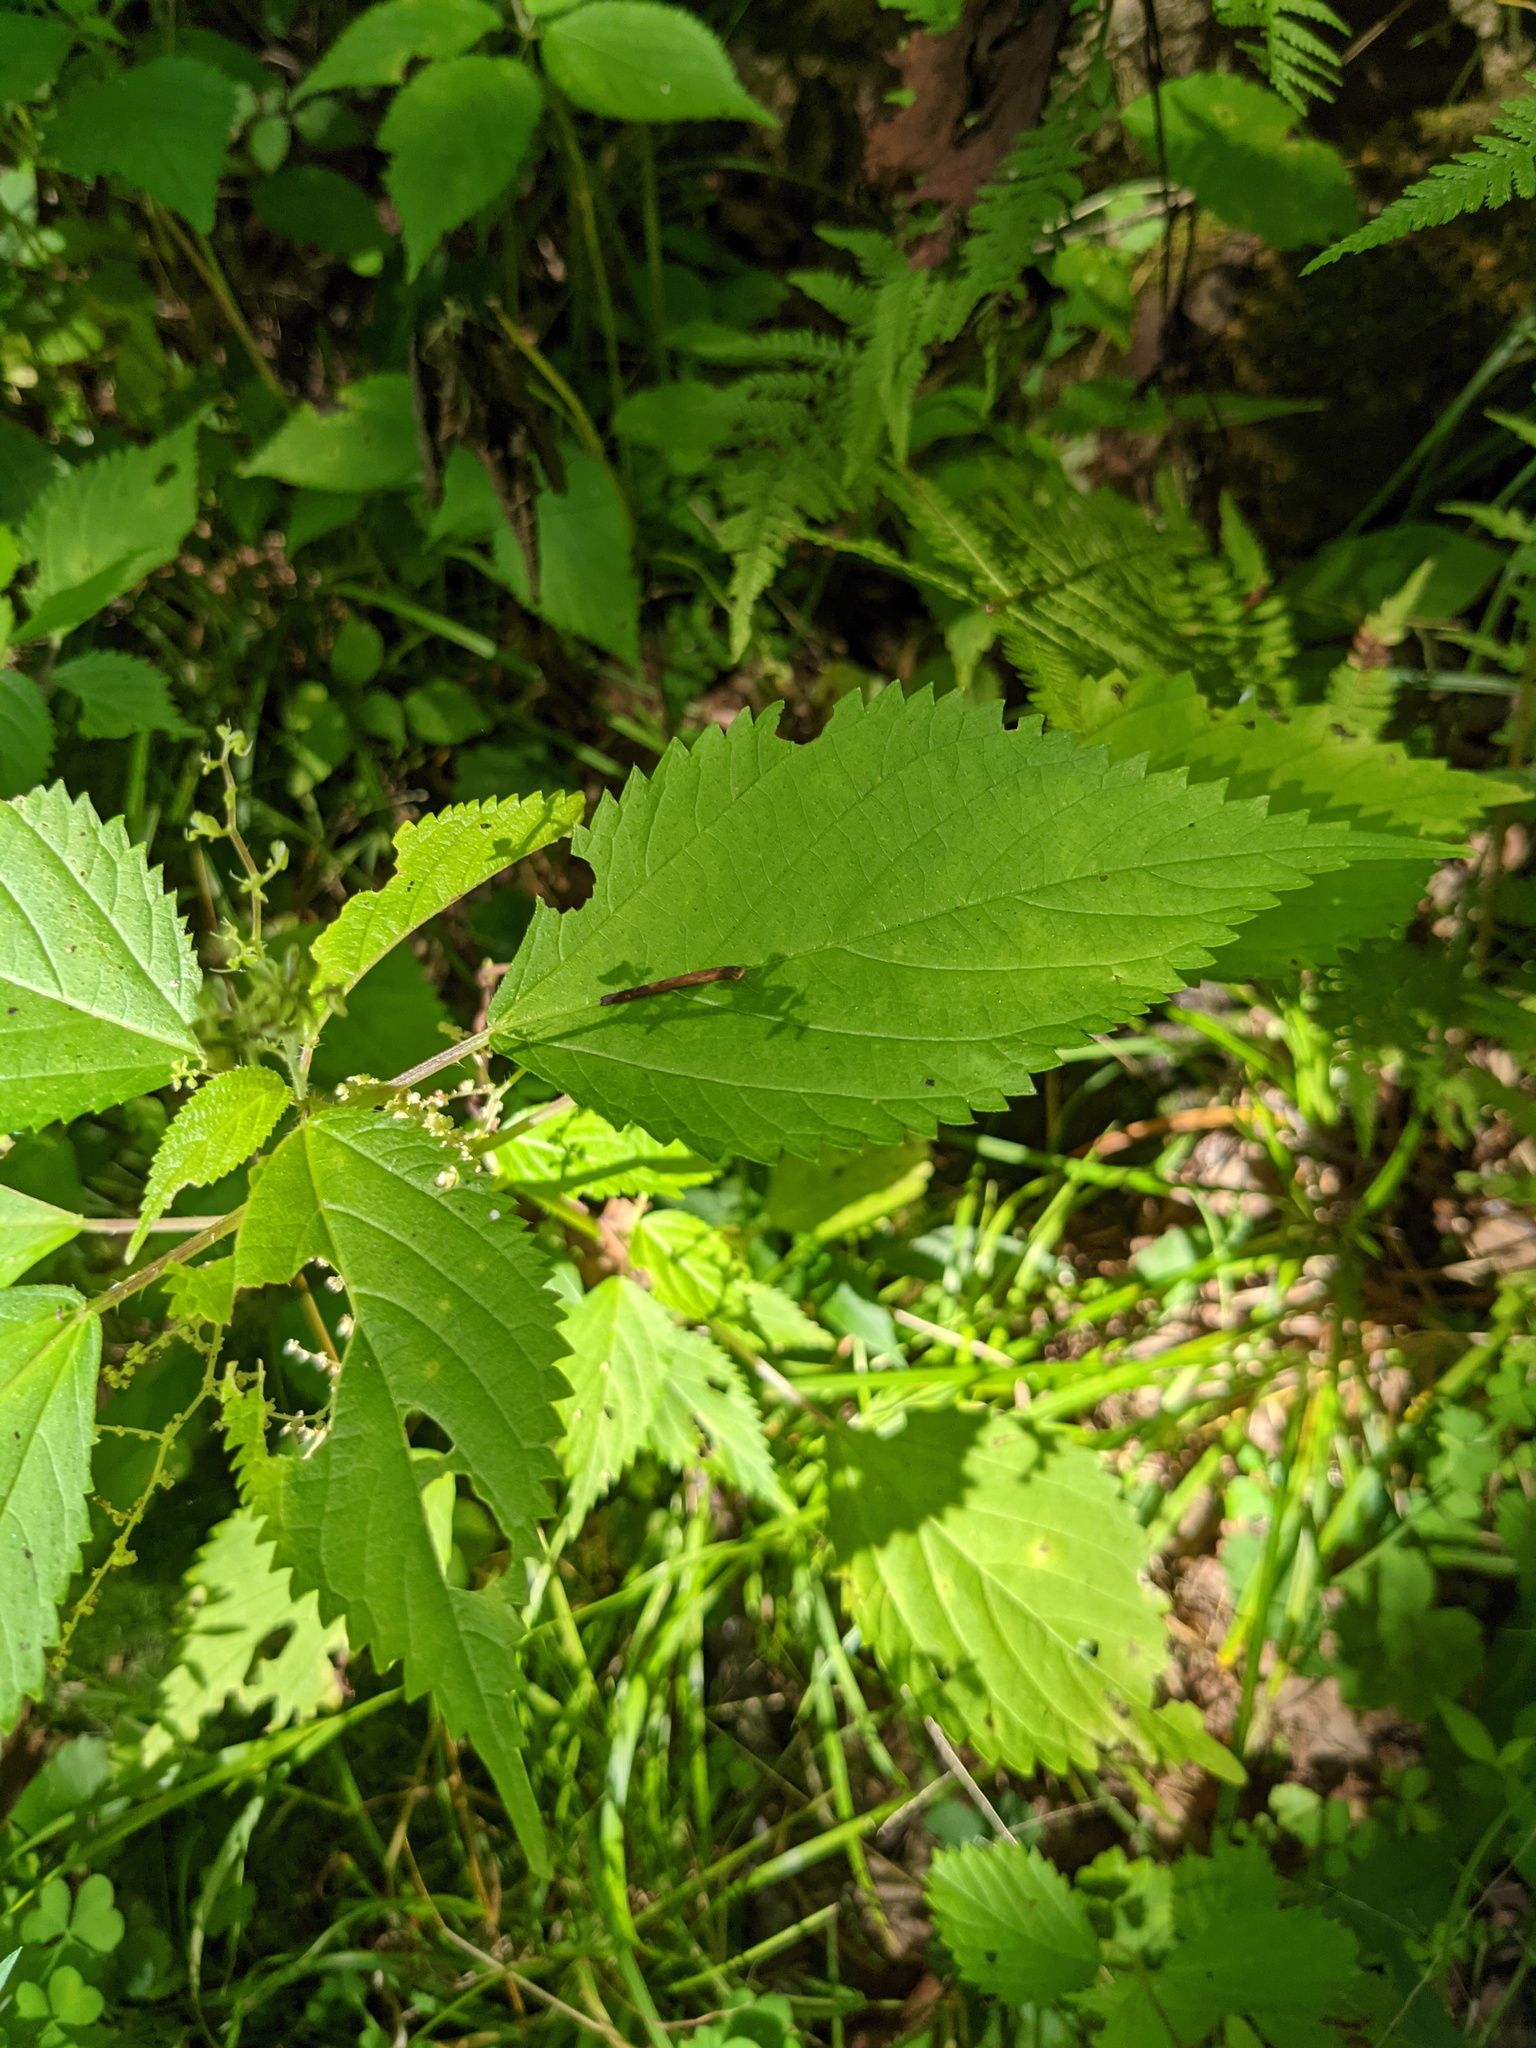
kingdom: Plantae
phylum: Tracheophyta
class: Magnoliopsida
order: Rosales
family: Urticaceae
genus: Laportea
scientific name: Laportea canadensis
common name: Canada nettle
